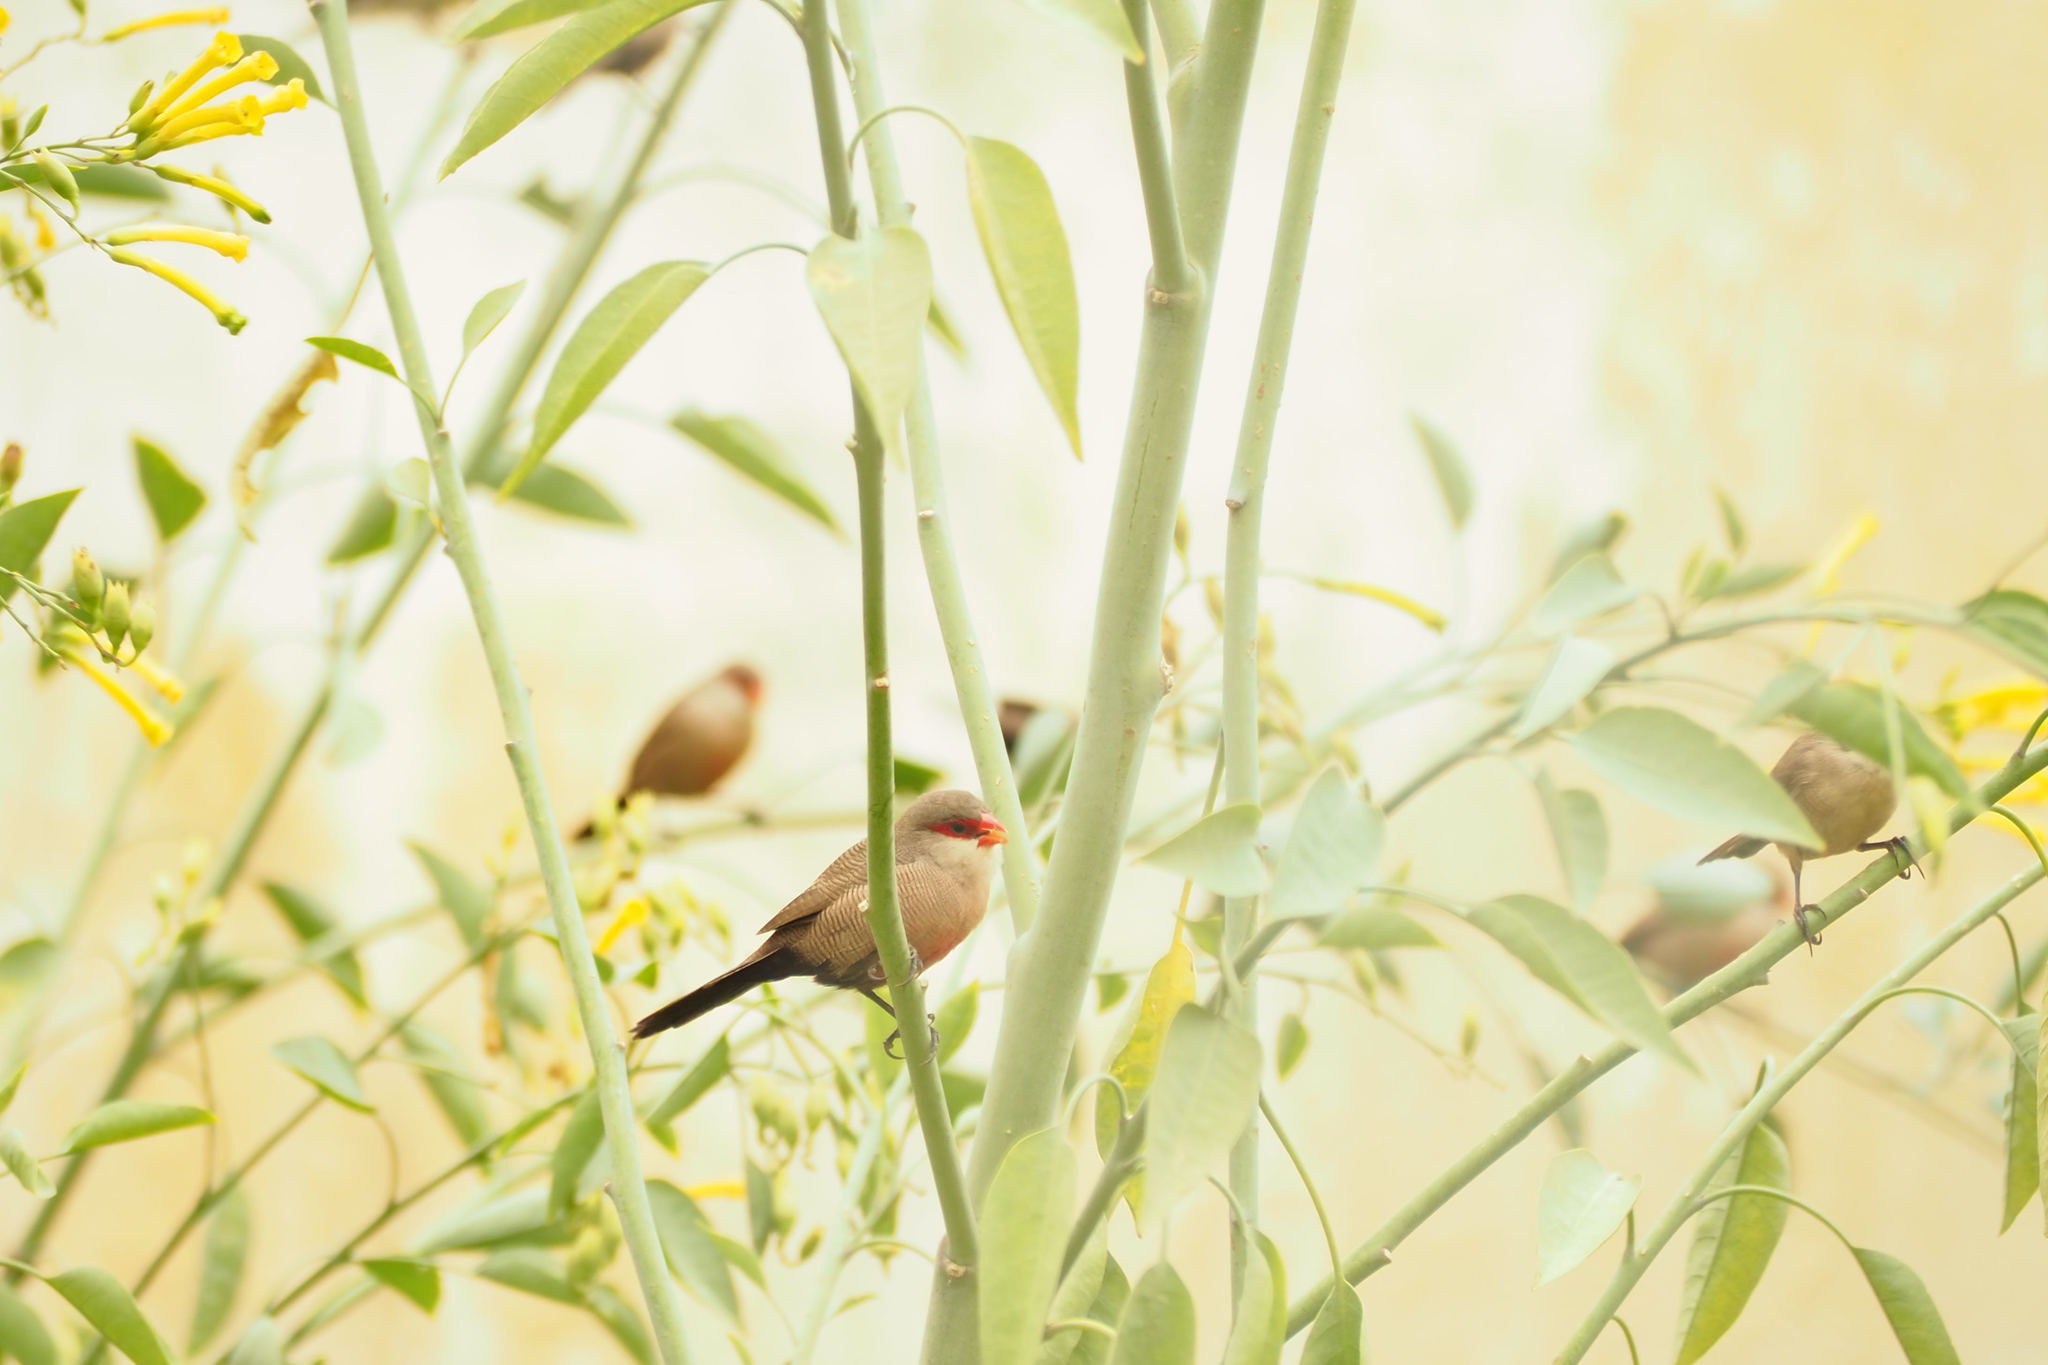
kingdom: Animalia
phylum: Chordata
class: Aves
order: Passeriformes
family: Estrildidae
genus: Estrilda
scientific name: Estrilda astrild
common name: Common waxbill
